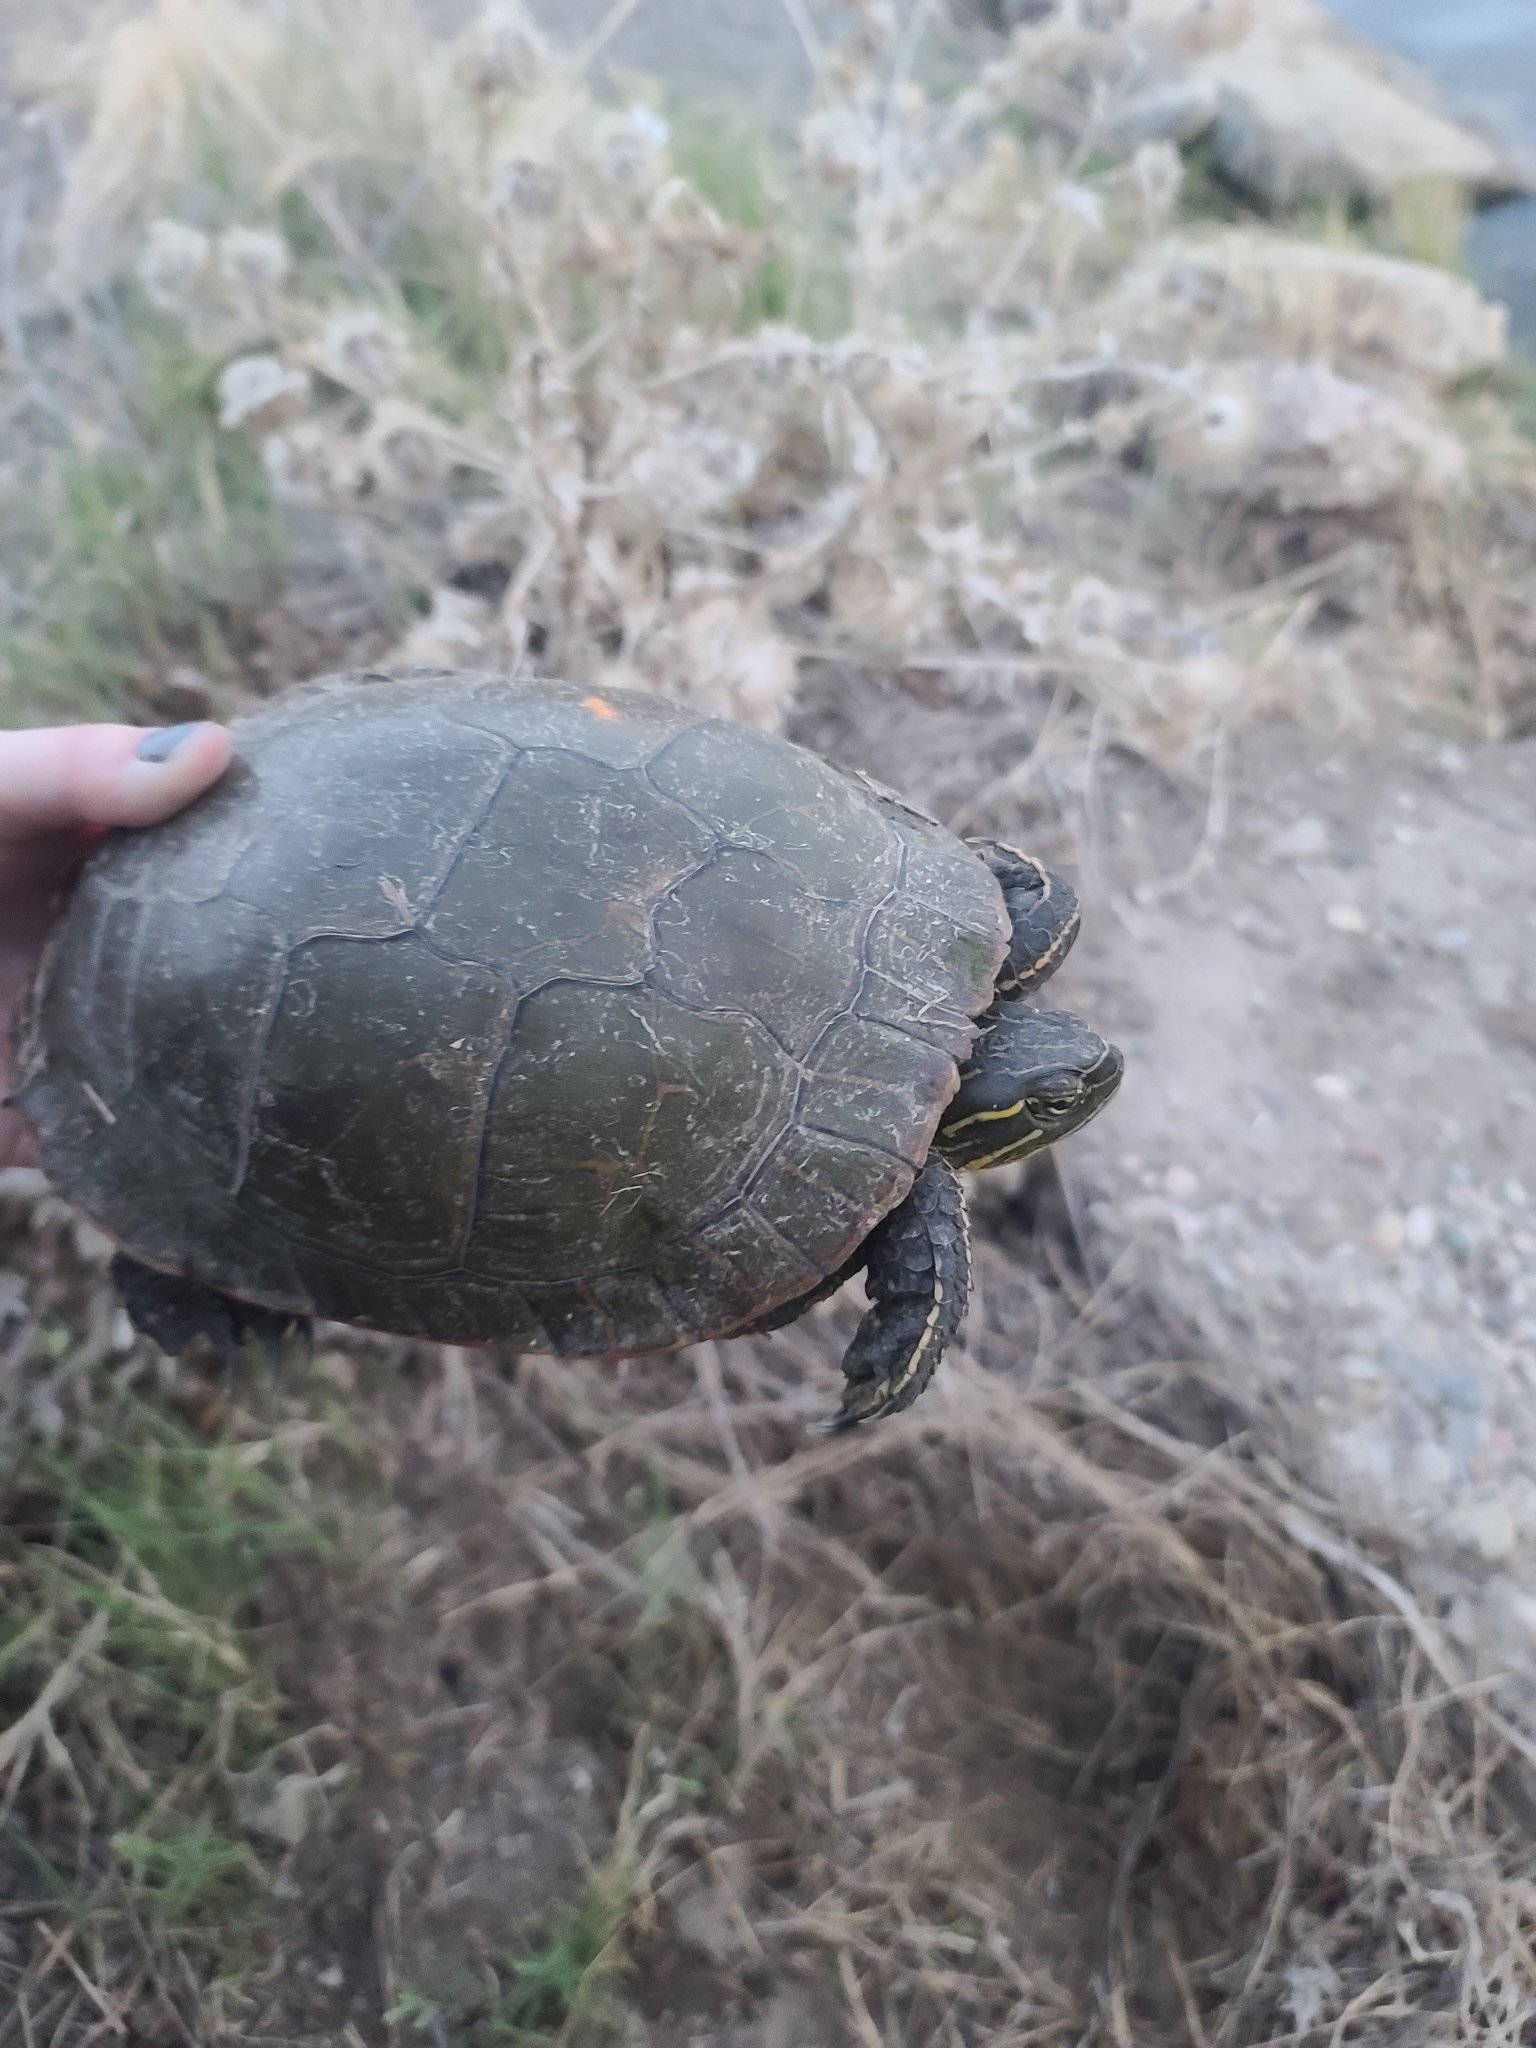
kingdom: Animalia
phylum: Chordata
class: Testudines
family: Emydidae
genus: Chrysemys
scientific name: Chrysemys picta
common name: Painted turtle
